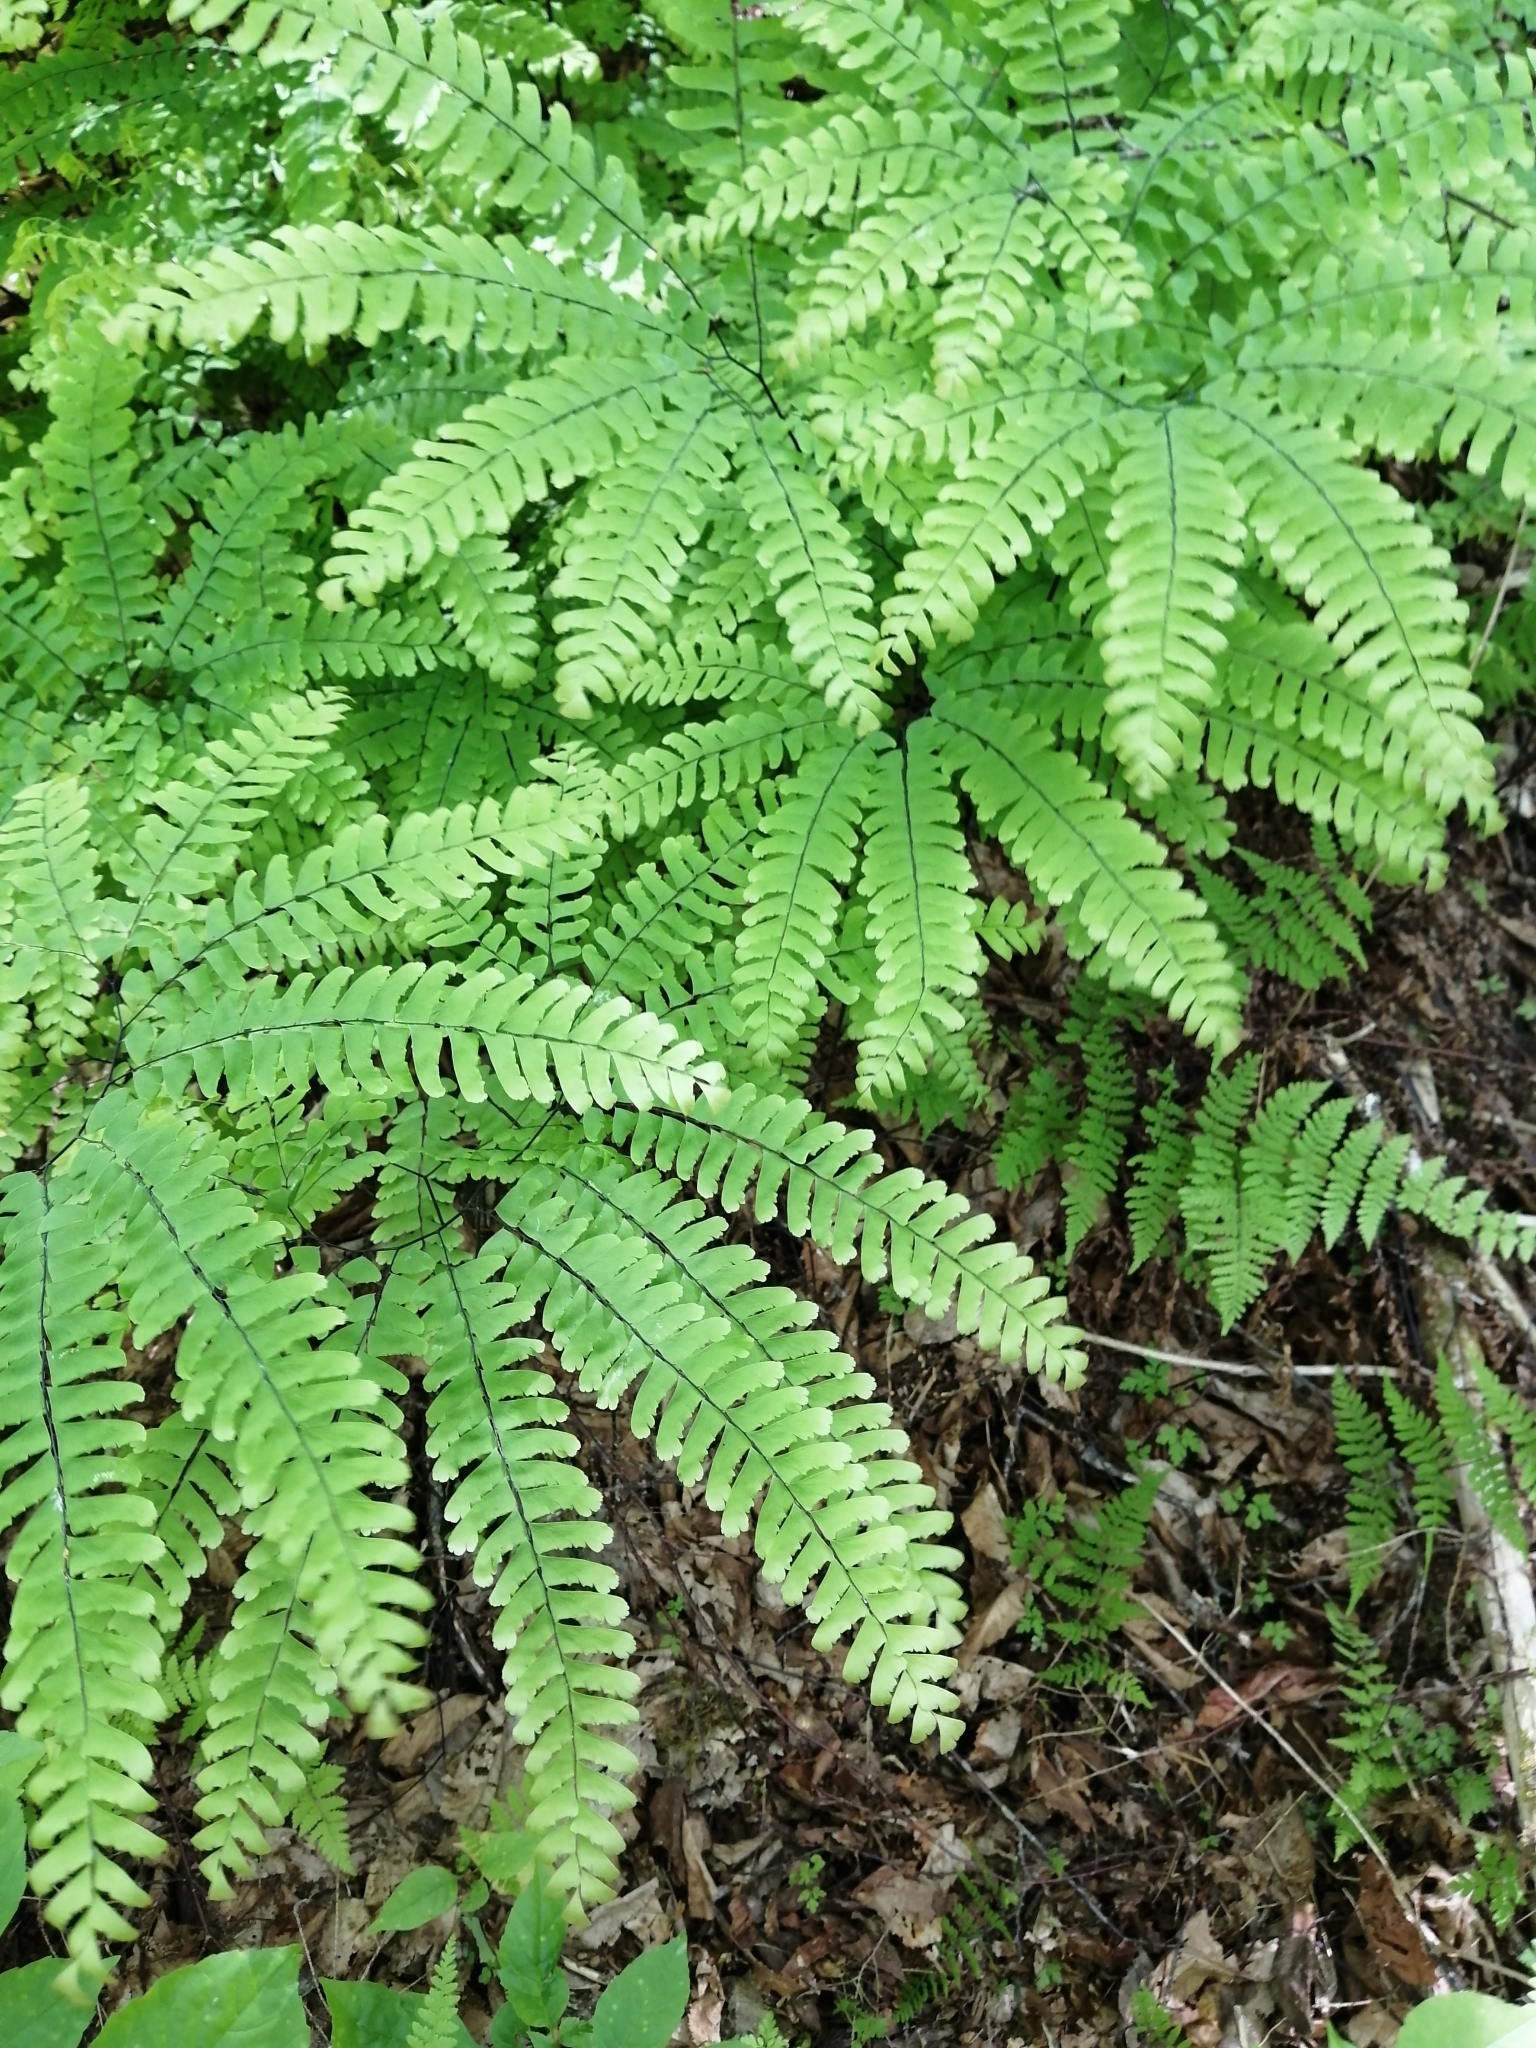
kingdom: Plantae
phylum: Tracheophyta
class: Polypodiopsida
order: Polypodiales
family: Pteridaceae
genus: Adiantum
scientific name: Adiantum pedatum
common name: Five-finger fern
